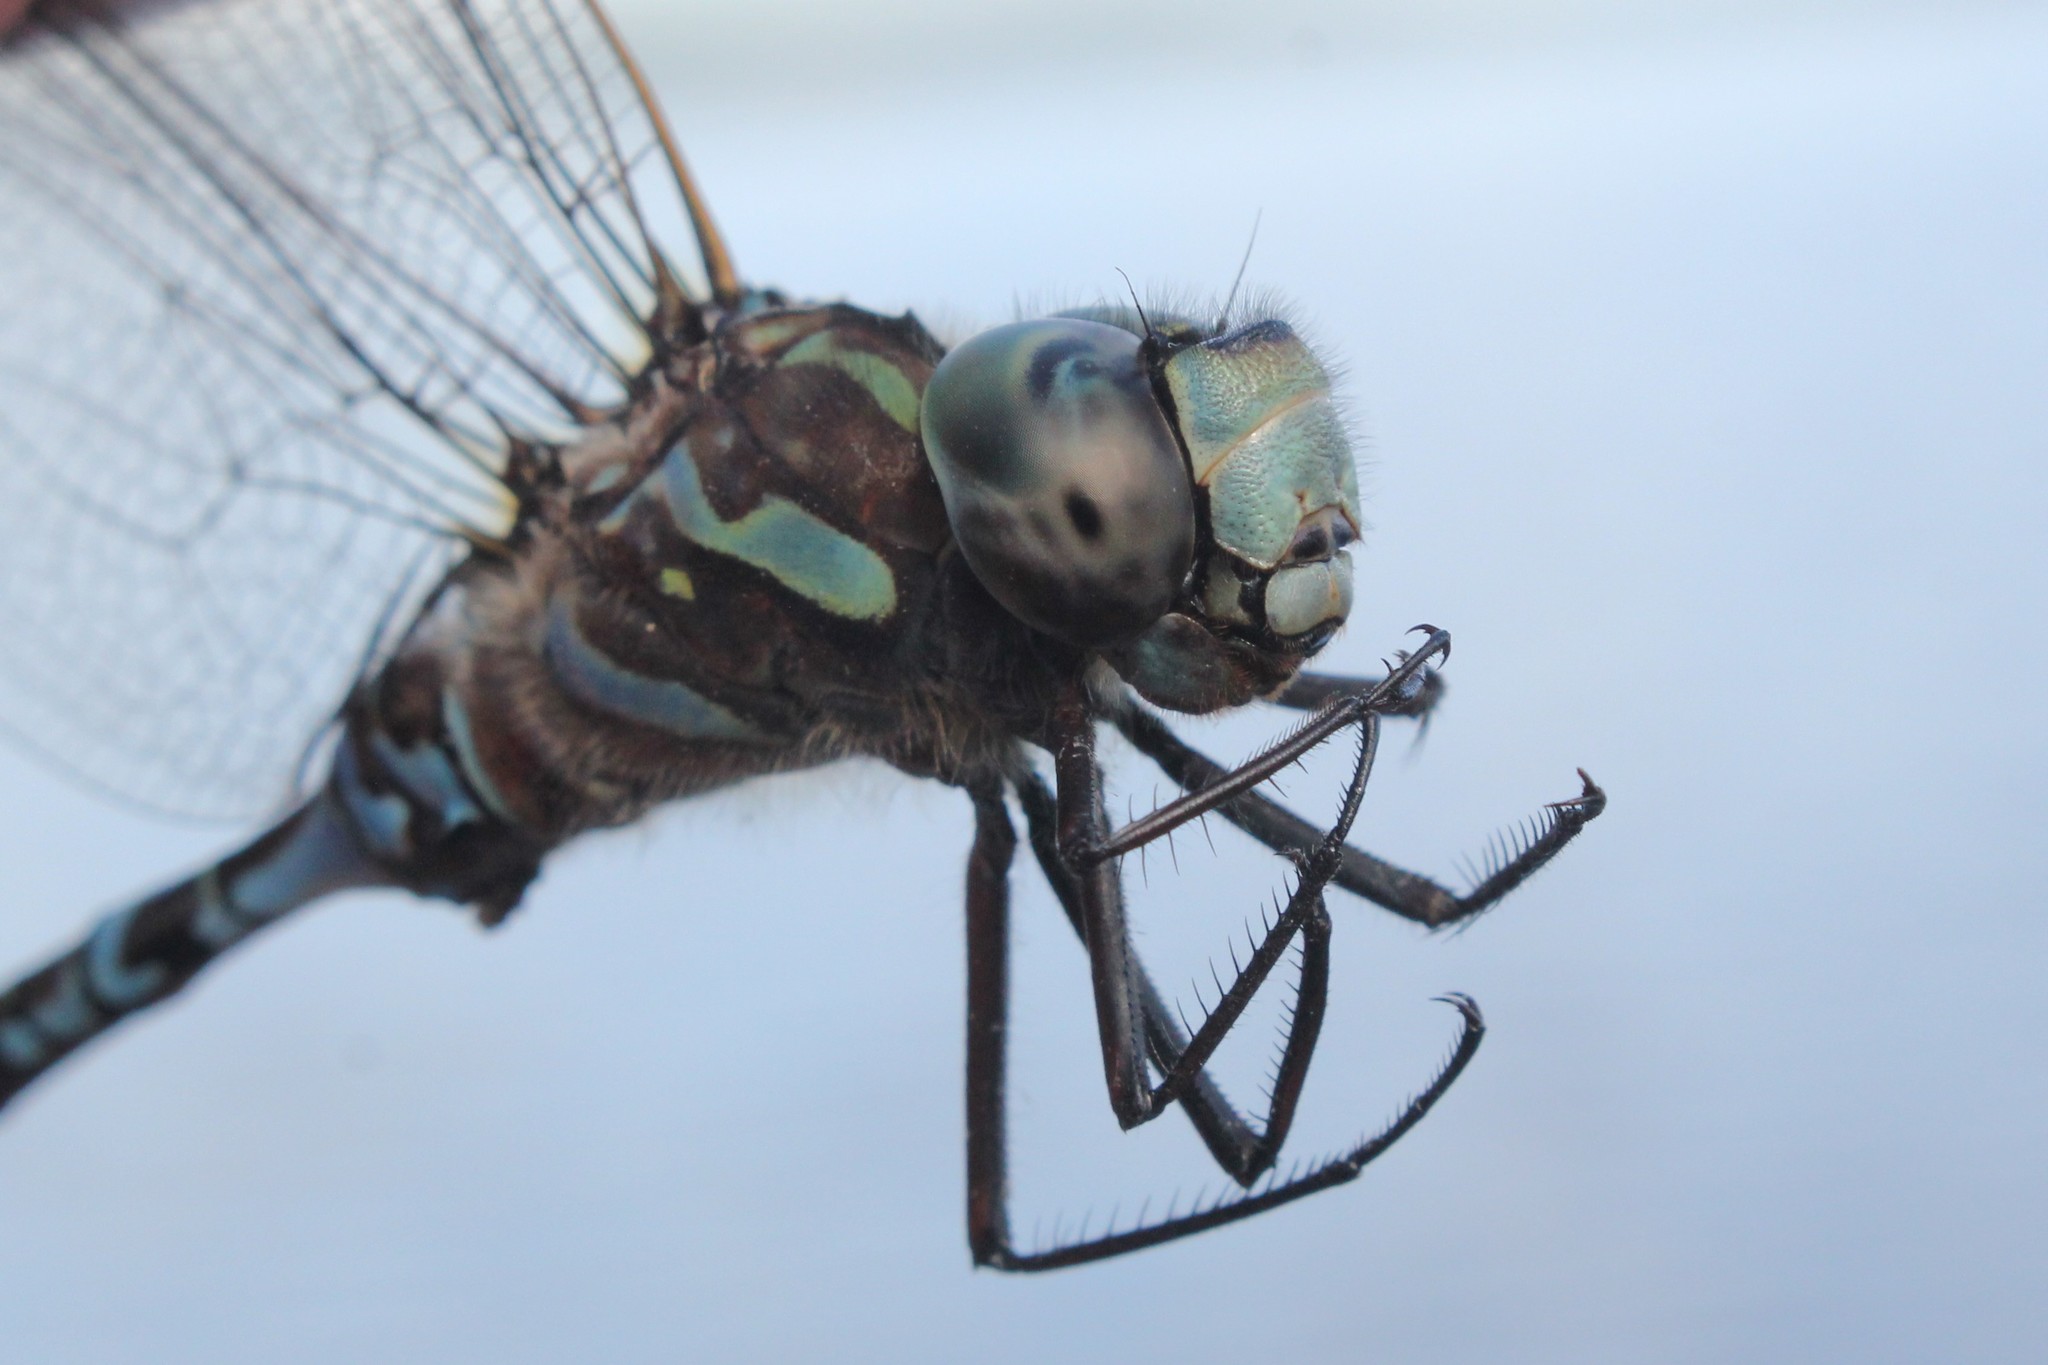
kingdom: Animalia
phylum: Arthropoda
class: Insecta
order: Odonata
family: Aeshnidae
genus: Aeshna
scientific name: Aeshna canadensis
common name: Canada darner
